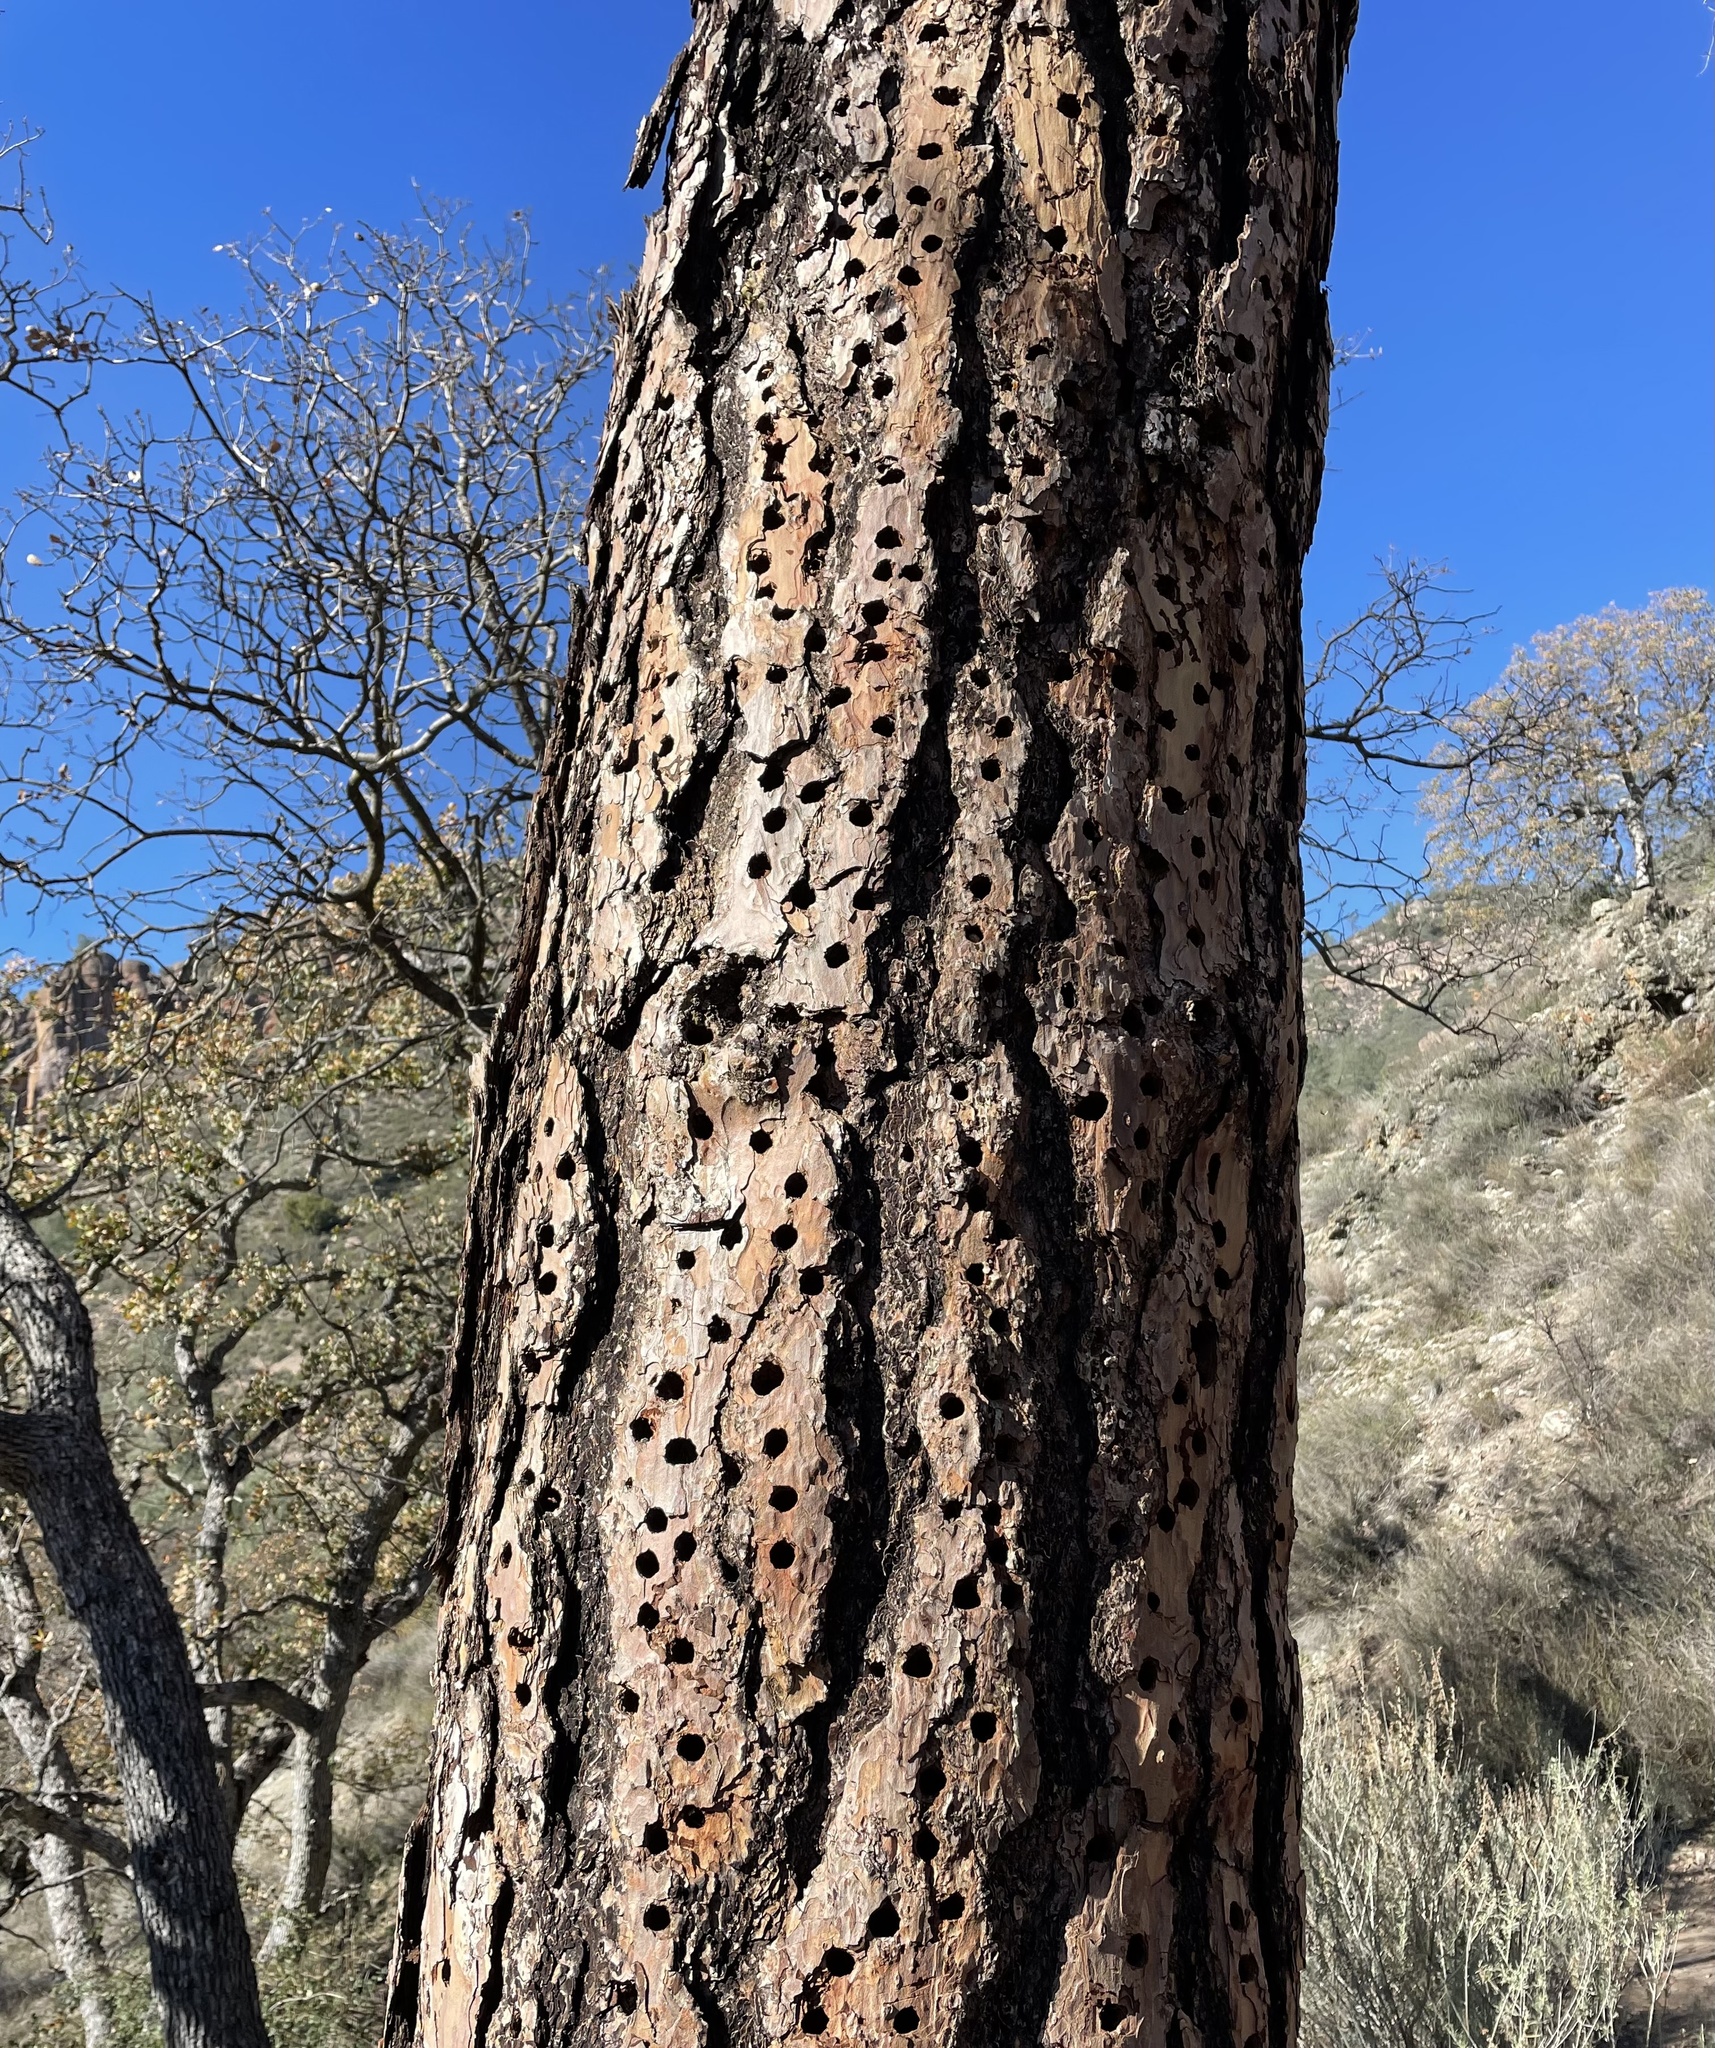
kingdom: Animalia
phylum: Chordata
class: Aves
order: Piciformes
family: Picidae
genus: Melanerpes
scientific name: Melanerpes formicivorus
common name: Acorn woodpecker
